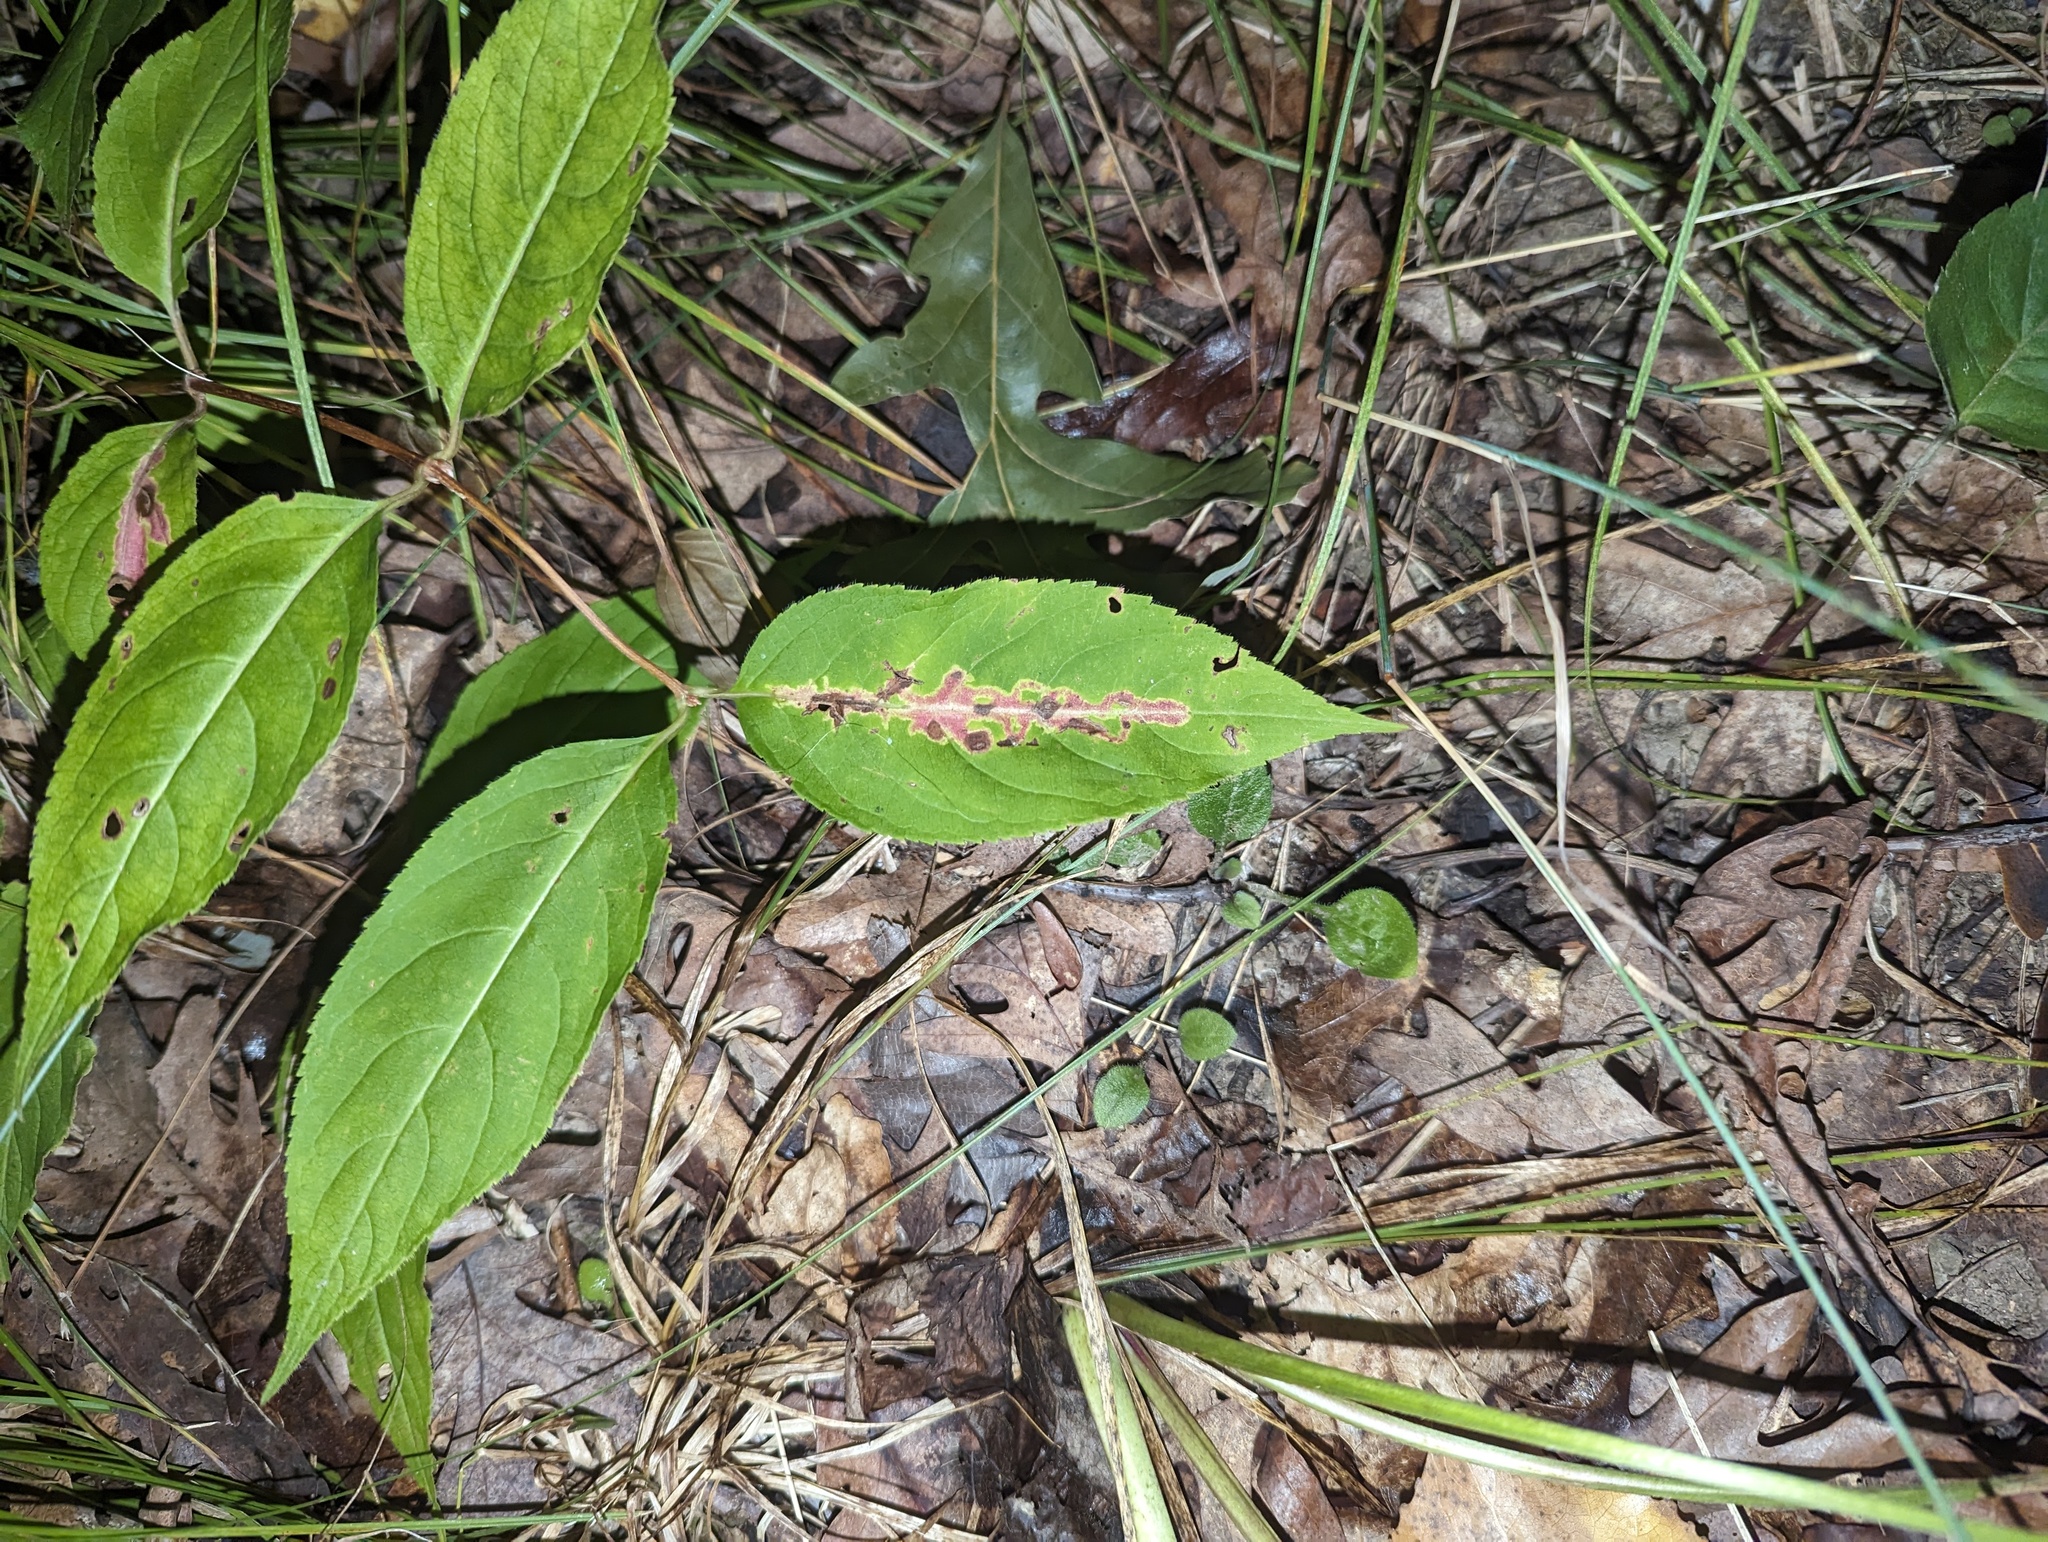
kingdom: Animalia
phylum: Arthropoda
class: Insecta
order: Diptera
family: Agromyzidae
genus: Phytomyza
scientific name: Phytomyza tarnwoodensis
